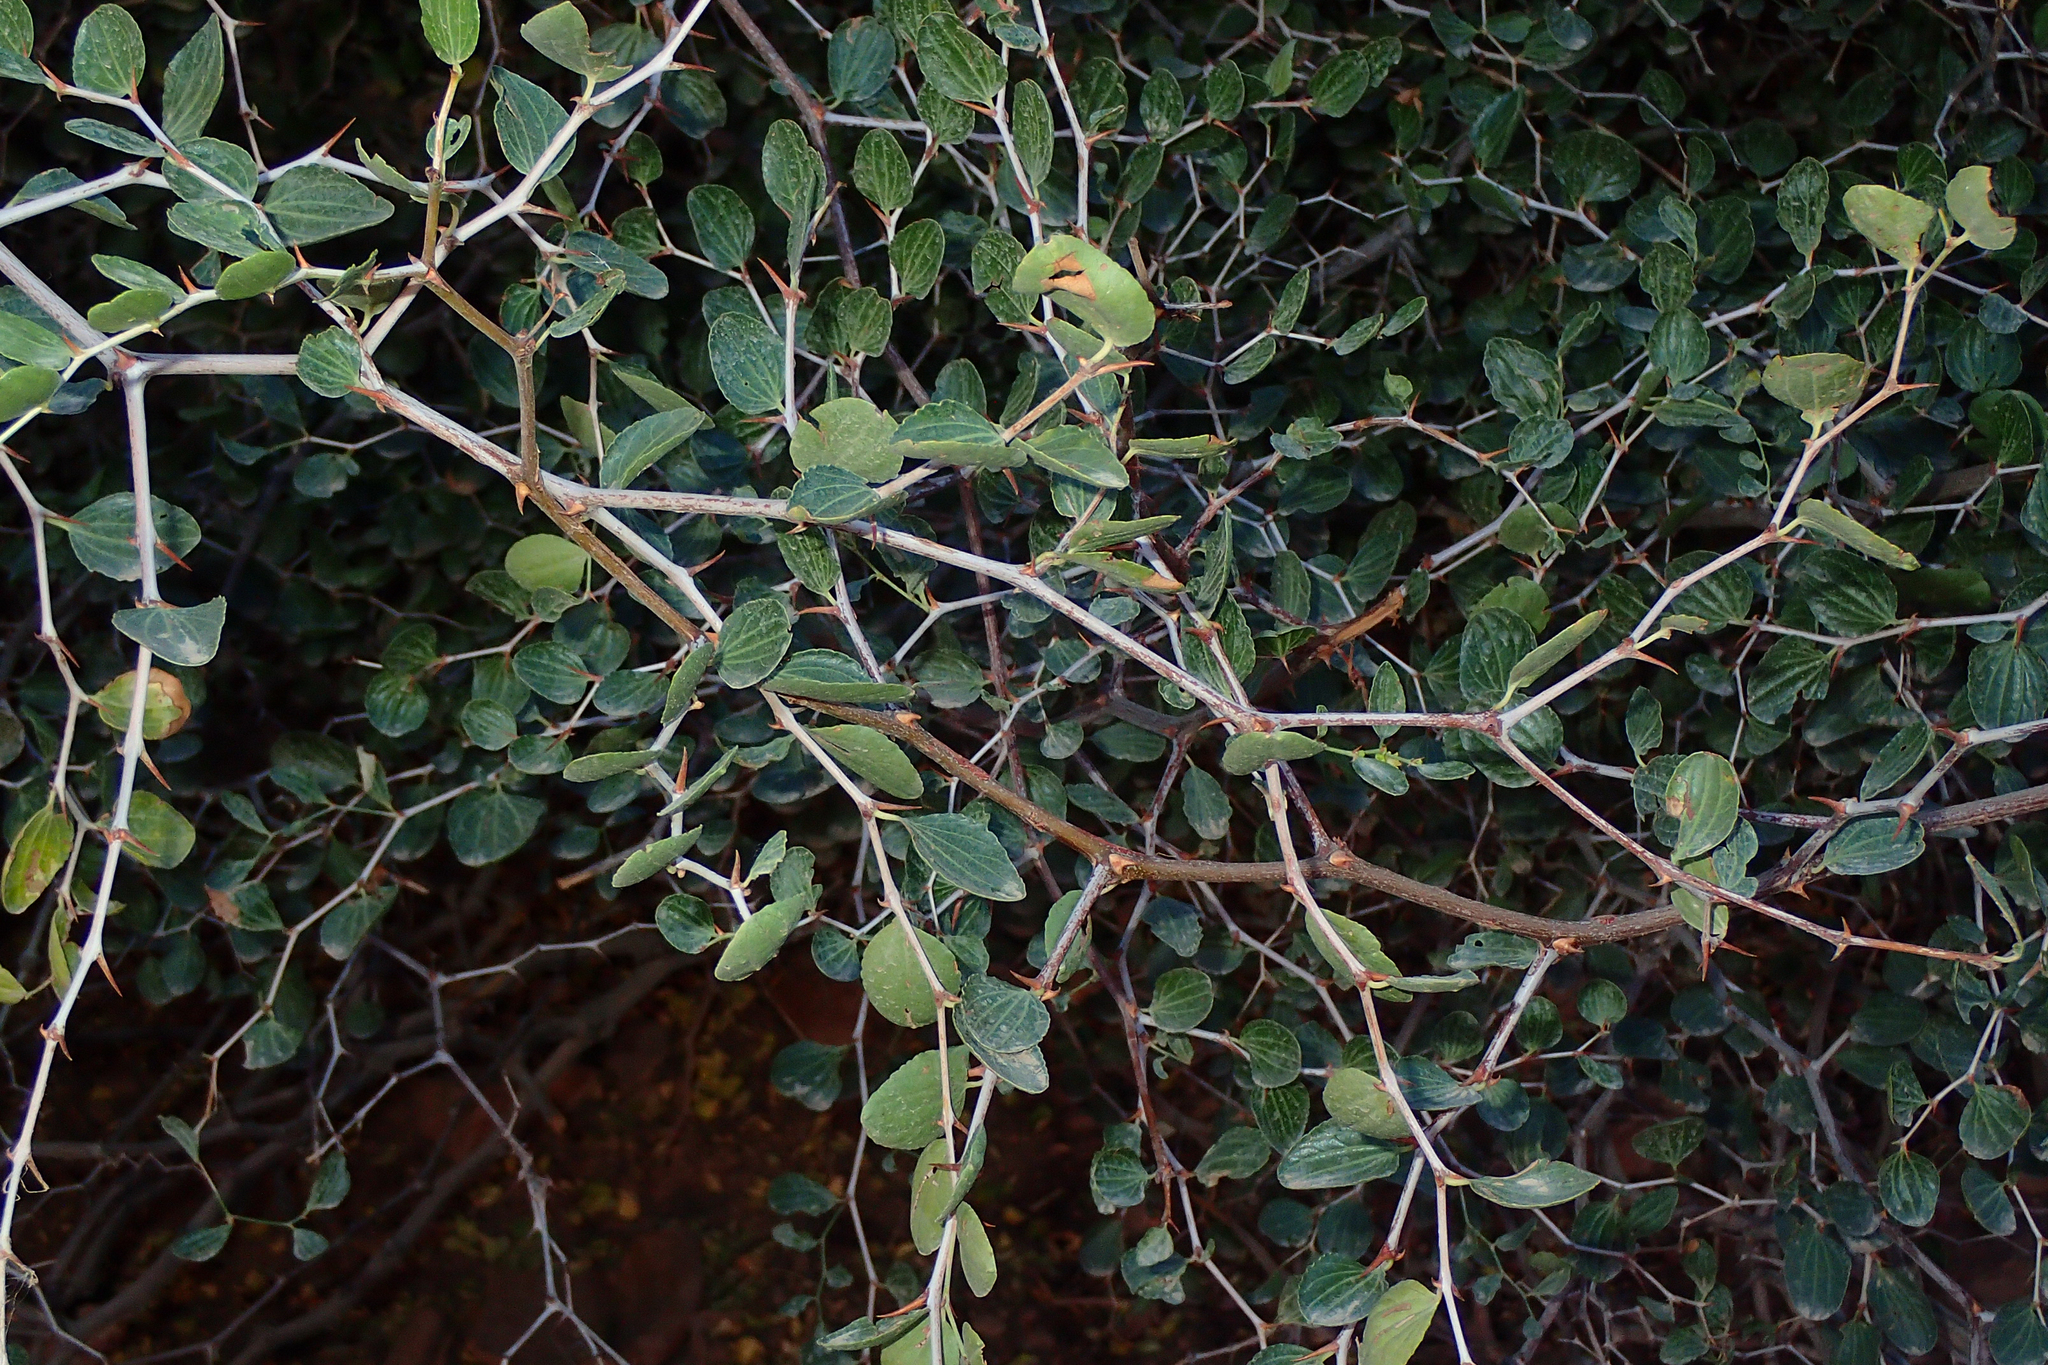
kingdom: Plantae
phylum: Tracheophyta
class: Magnoliopsida
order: Rosales
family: Rhamnaceae
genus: Ziziphus
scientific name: Ziziphus lotus
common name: Lotus
